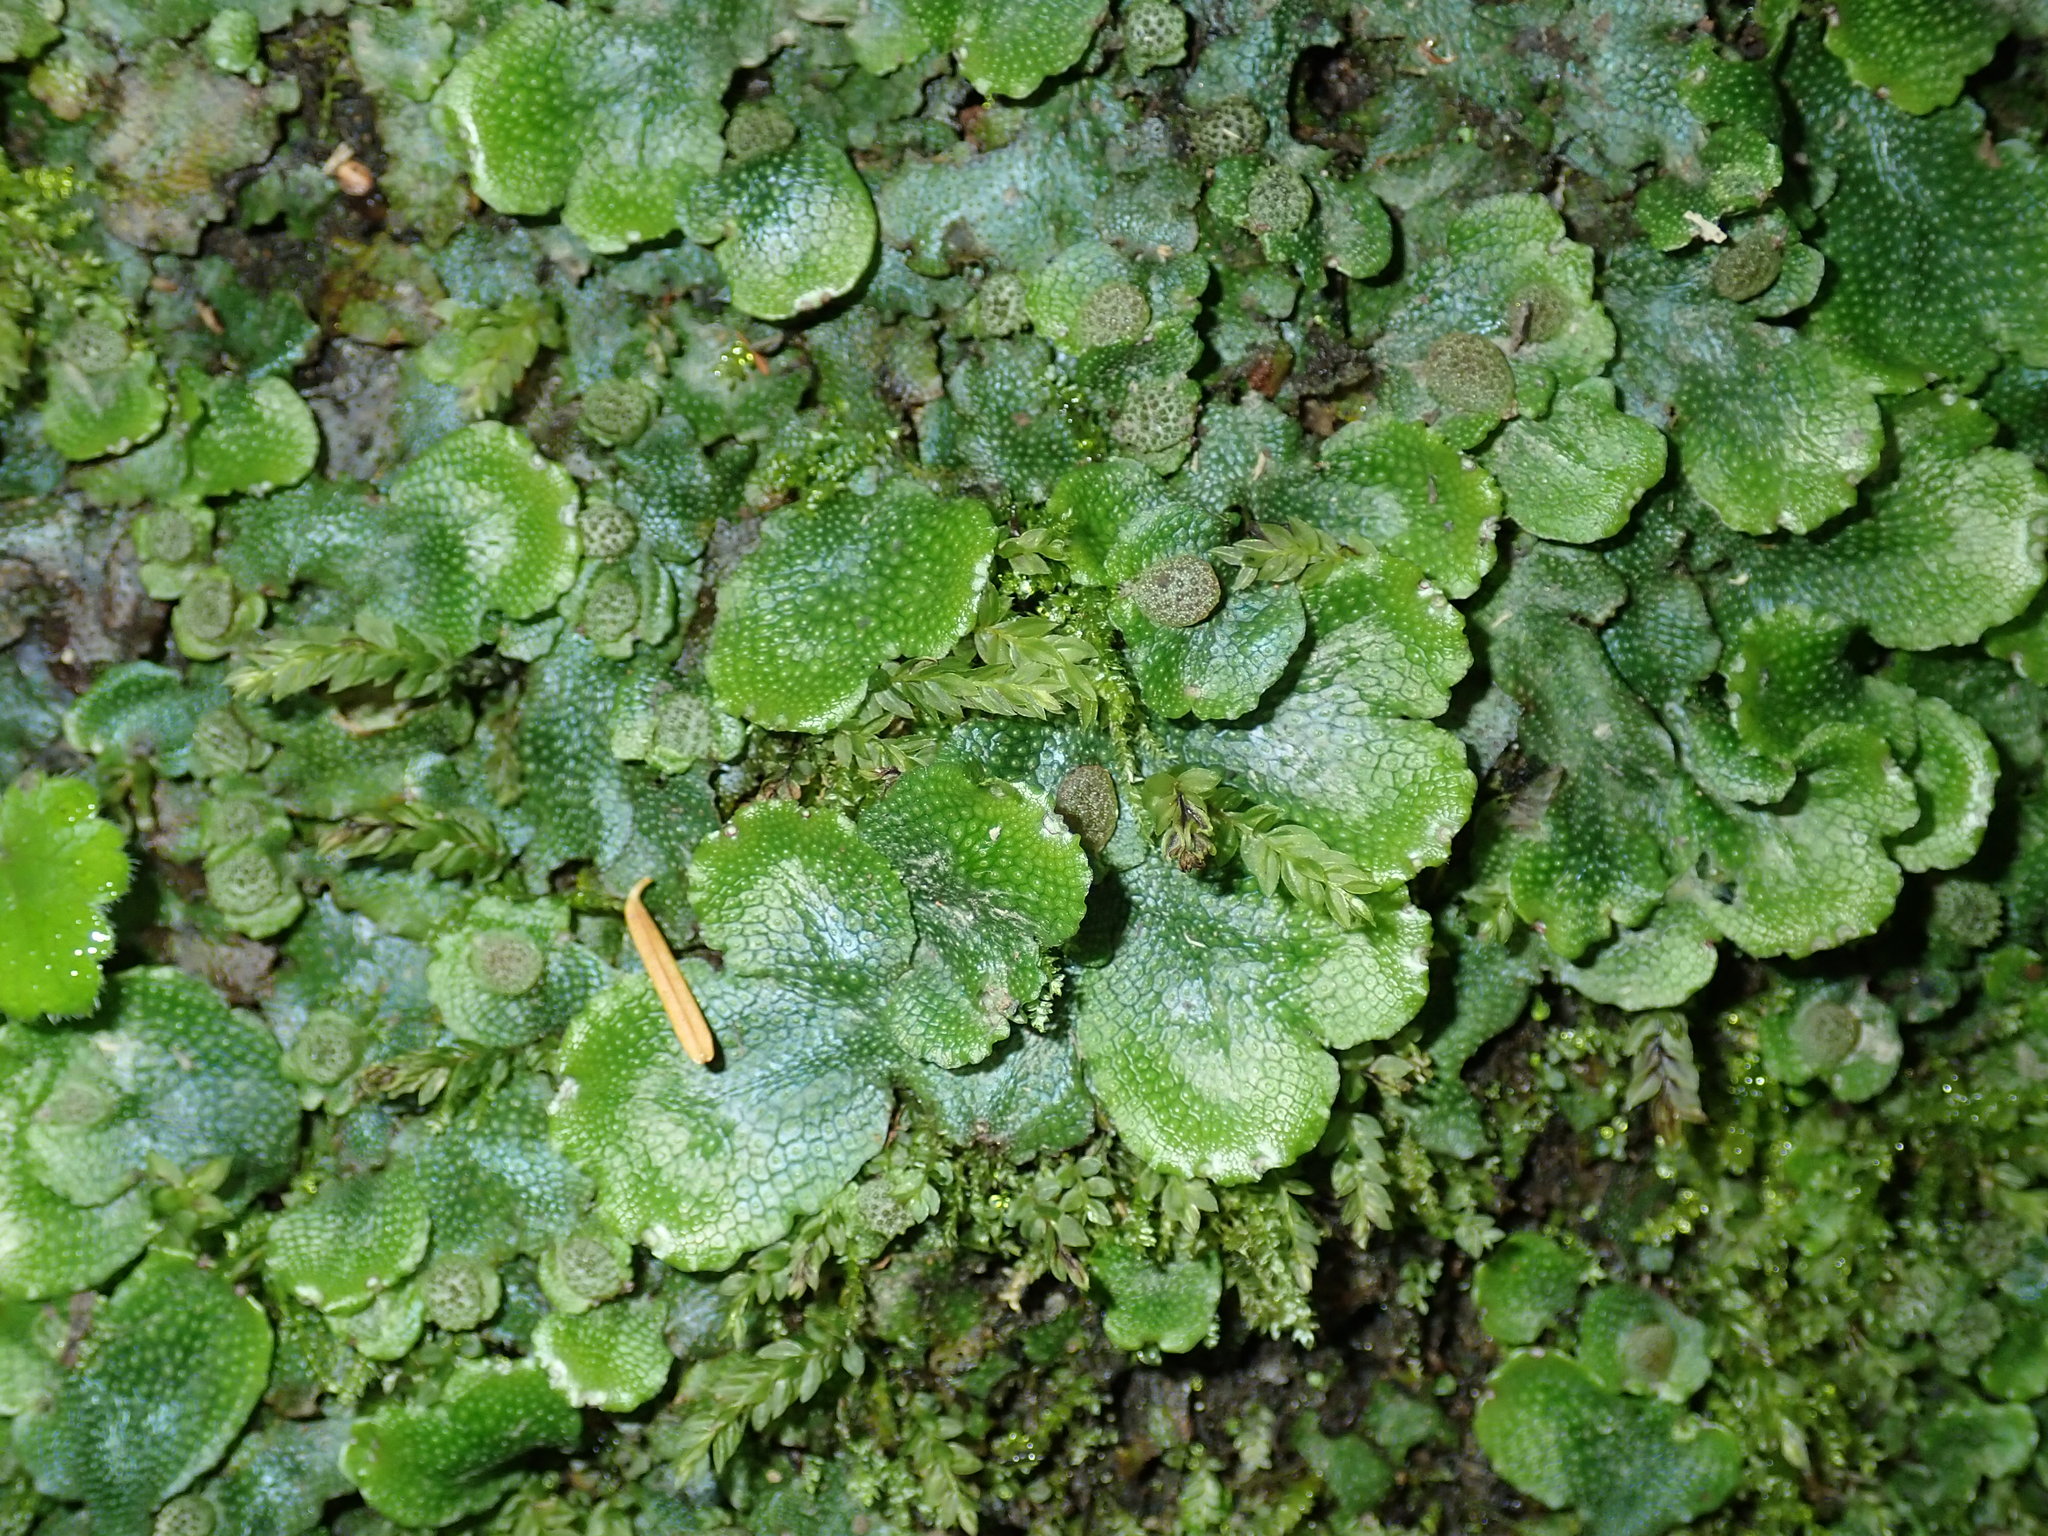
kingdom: Plantae
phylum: Marchantiophyta
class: Marchantiopsida
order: Marchantiales
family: Conocephalaceae
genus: Conocephalum
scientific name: Conocephalum conicum
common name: Great scented liverwort
